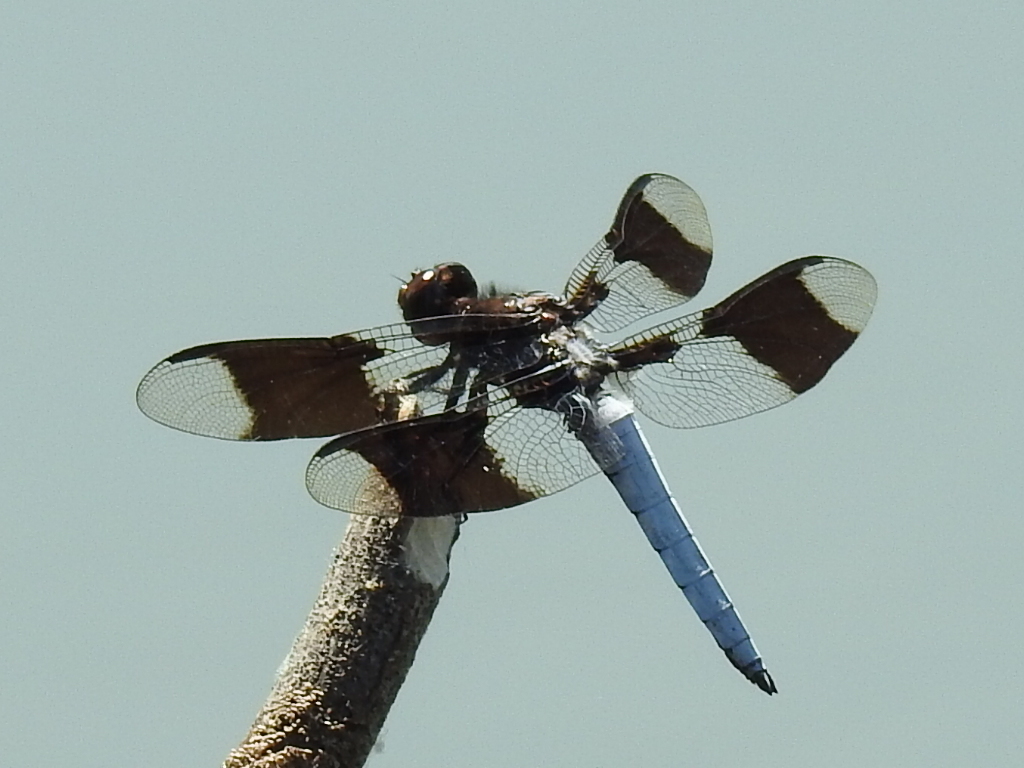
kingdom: Animalia
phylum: Arthropoda
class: Insecta
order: Odonata
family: Libellulidae
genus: Plathemis
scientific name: Plathemis lydia
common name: Common whitetail
